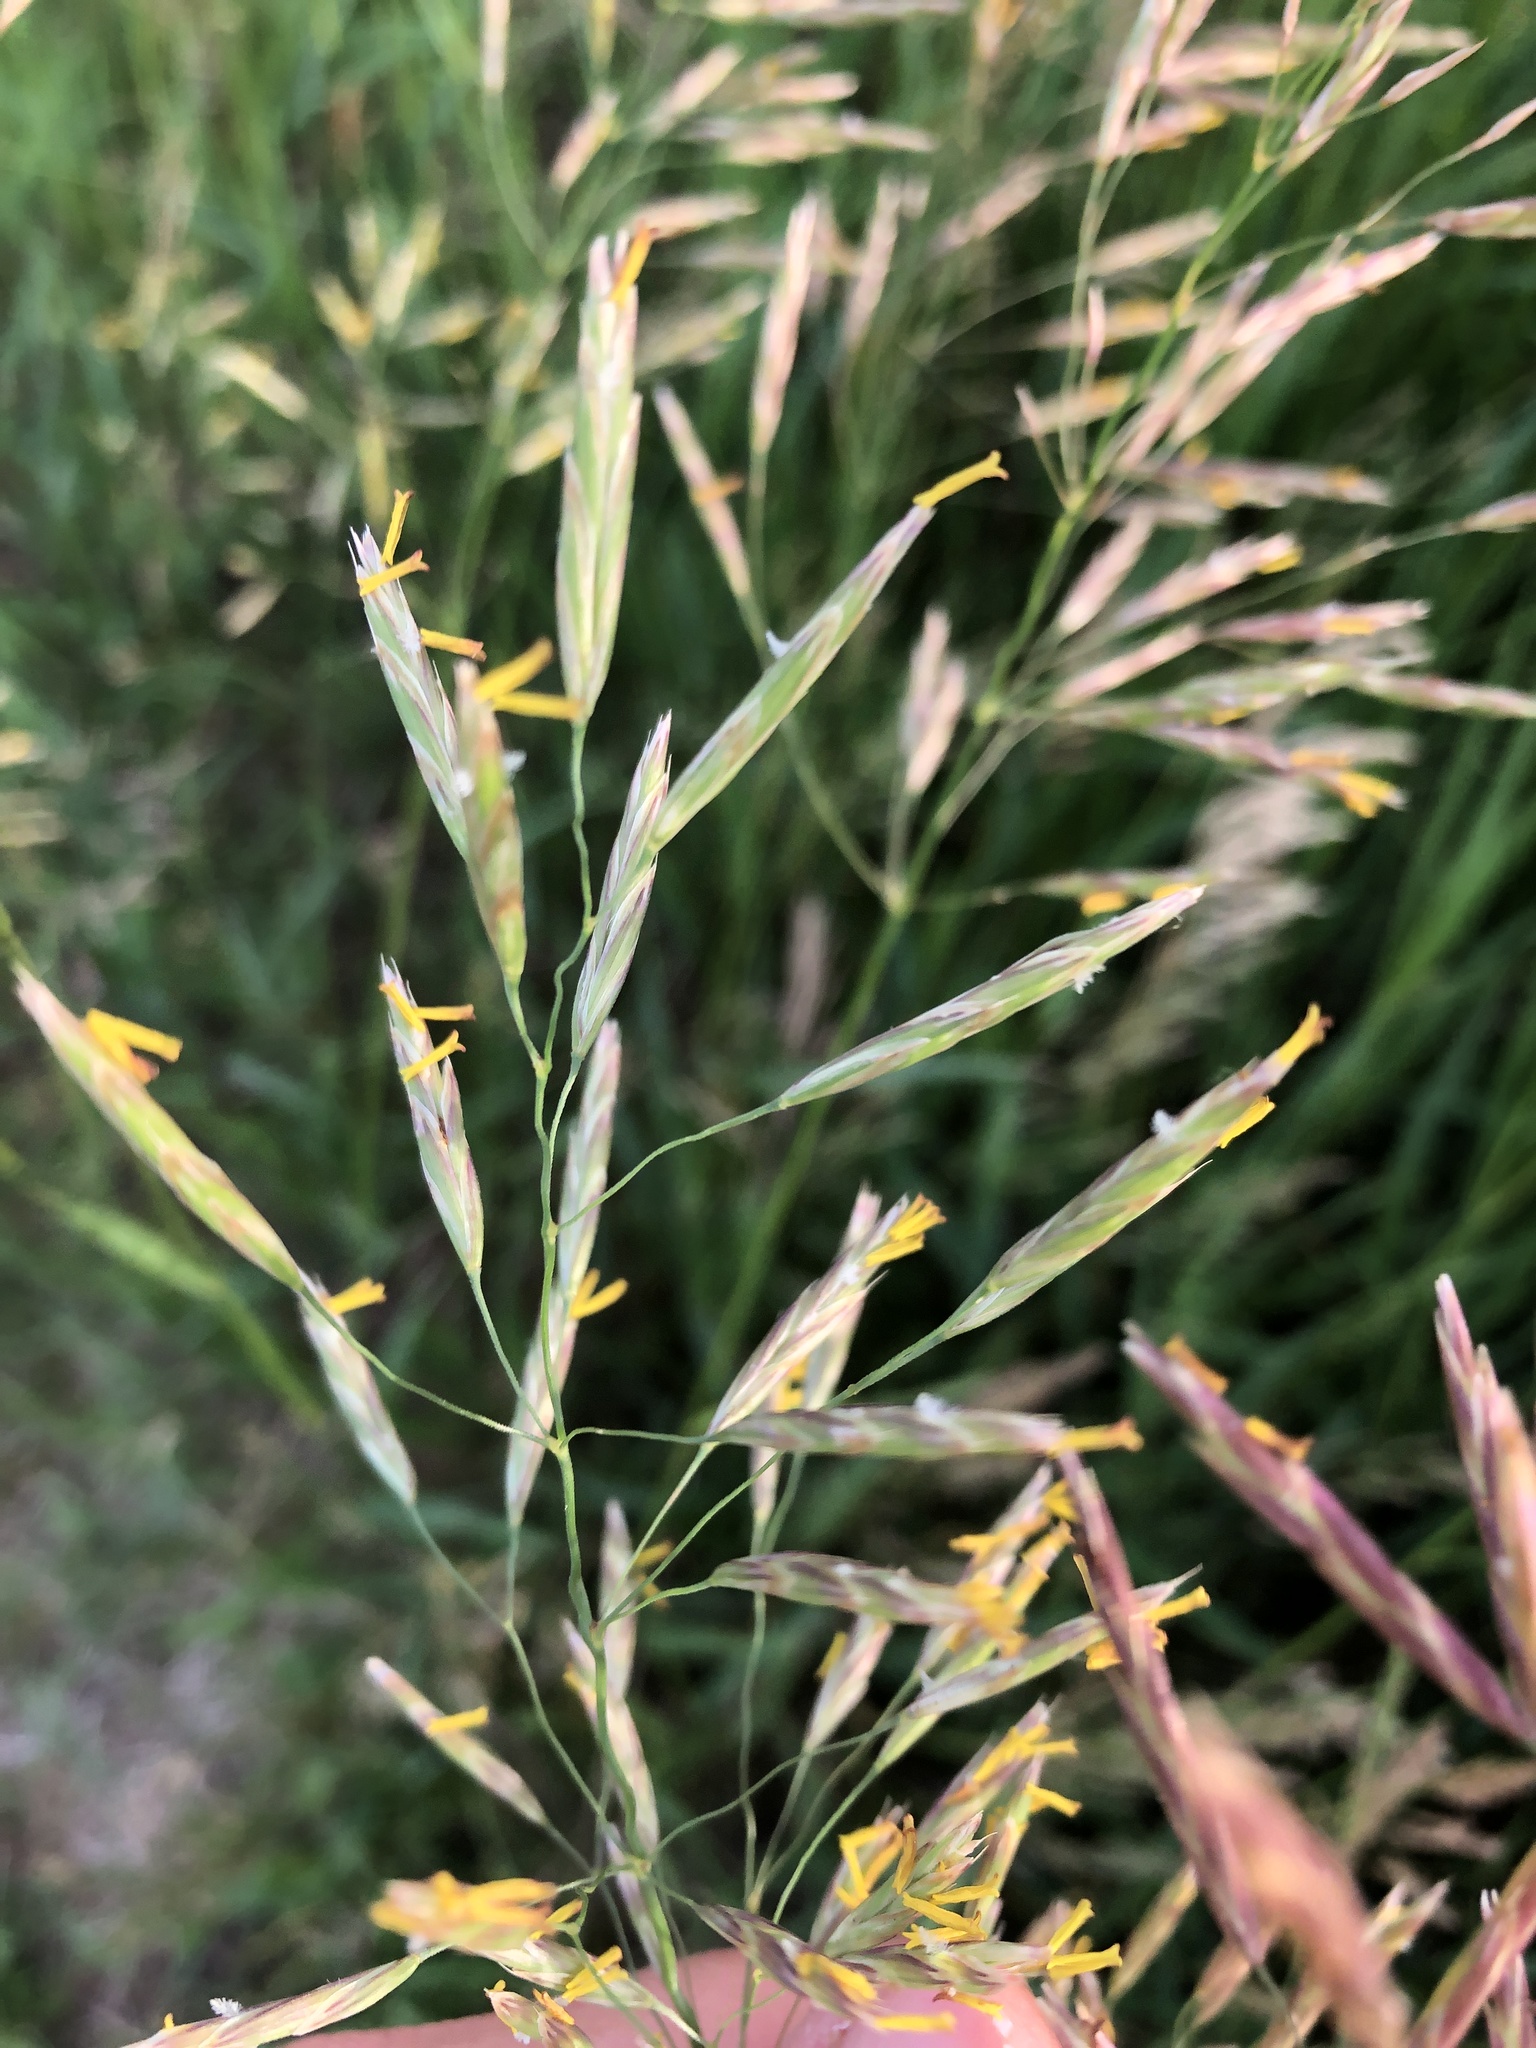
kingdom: Plantae
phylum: Tracheophyta
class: Liliopsida
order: Poales
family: Poaceae
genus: Bromus
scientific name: Bromus inermis
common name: Smooth brome
